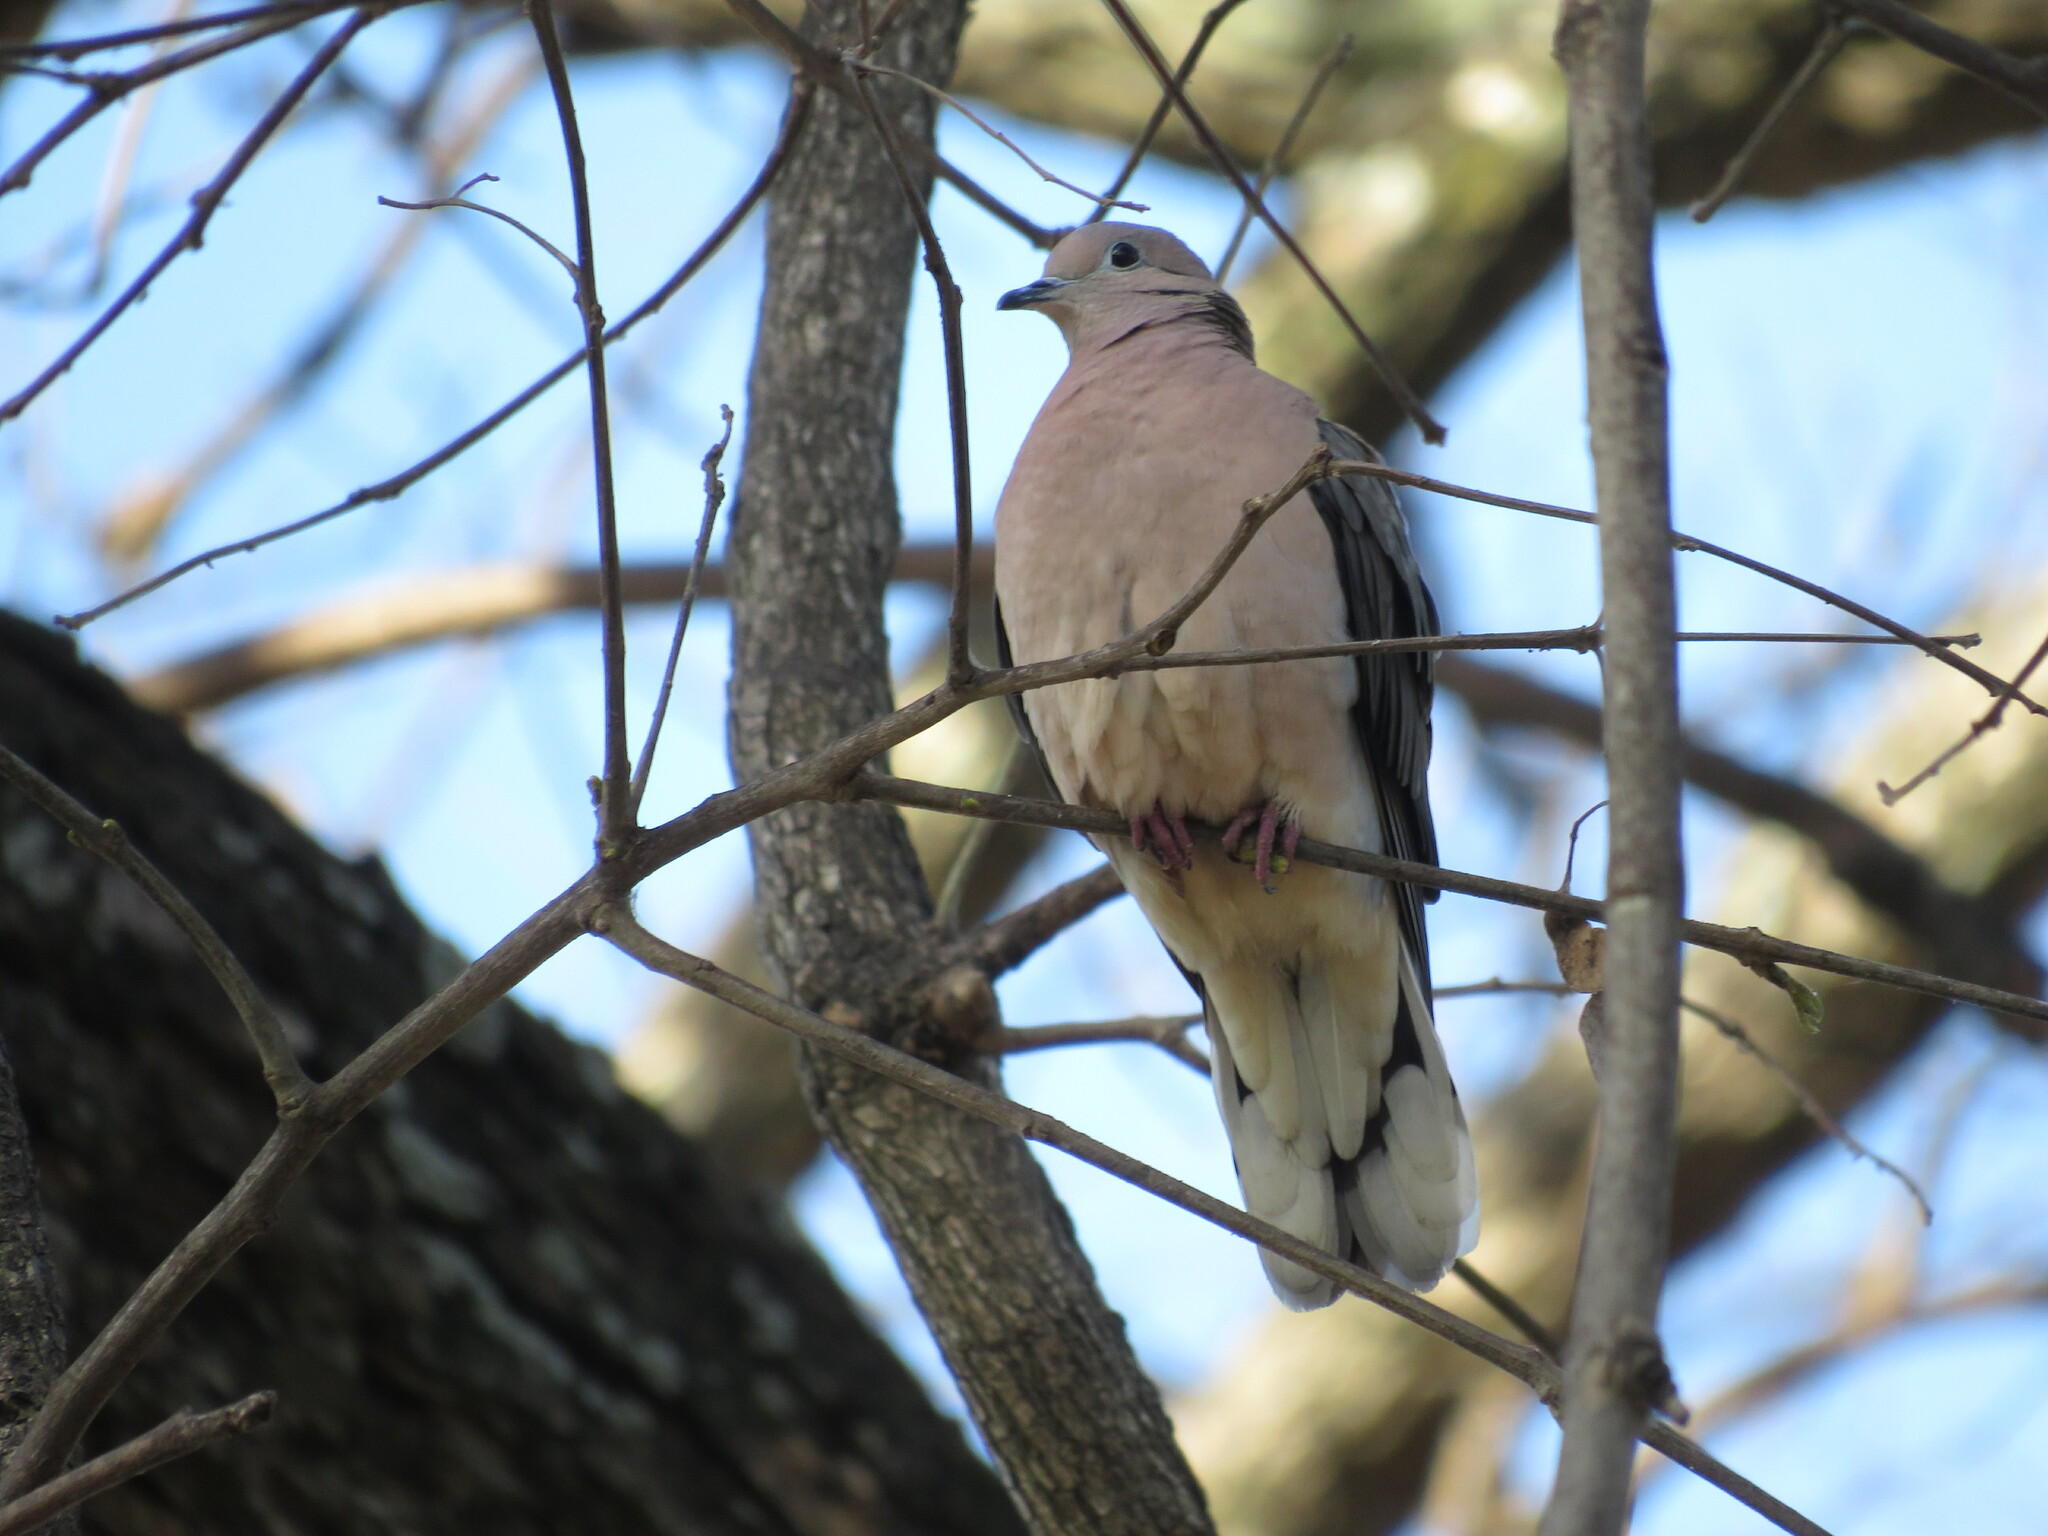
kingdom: Animalia
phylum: Chordata
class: Aves
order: Columbiformes
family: Columbidae
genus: Zenaida
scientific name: Zenaida auriculata
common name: Eared dove
